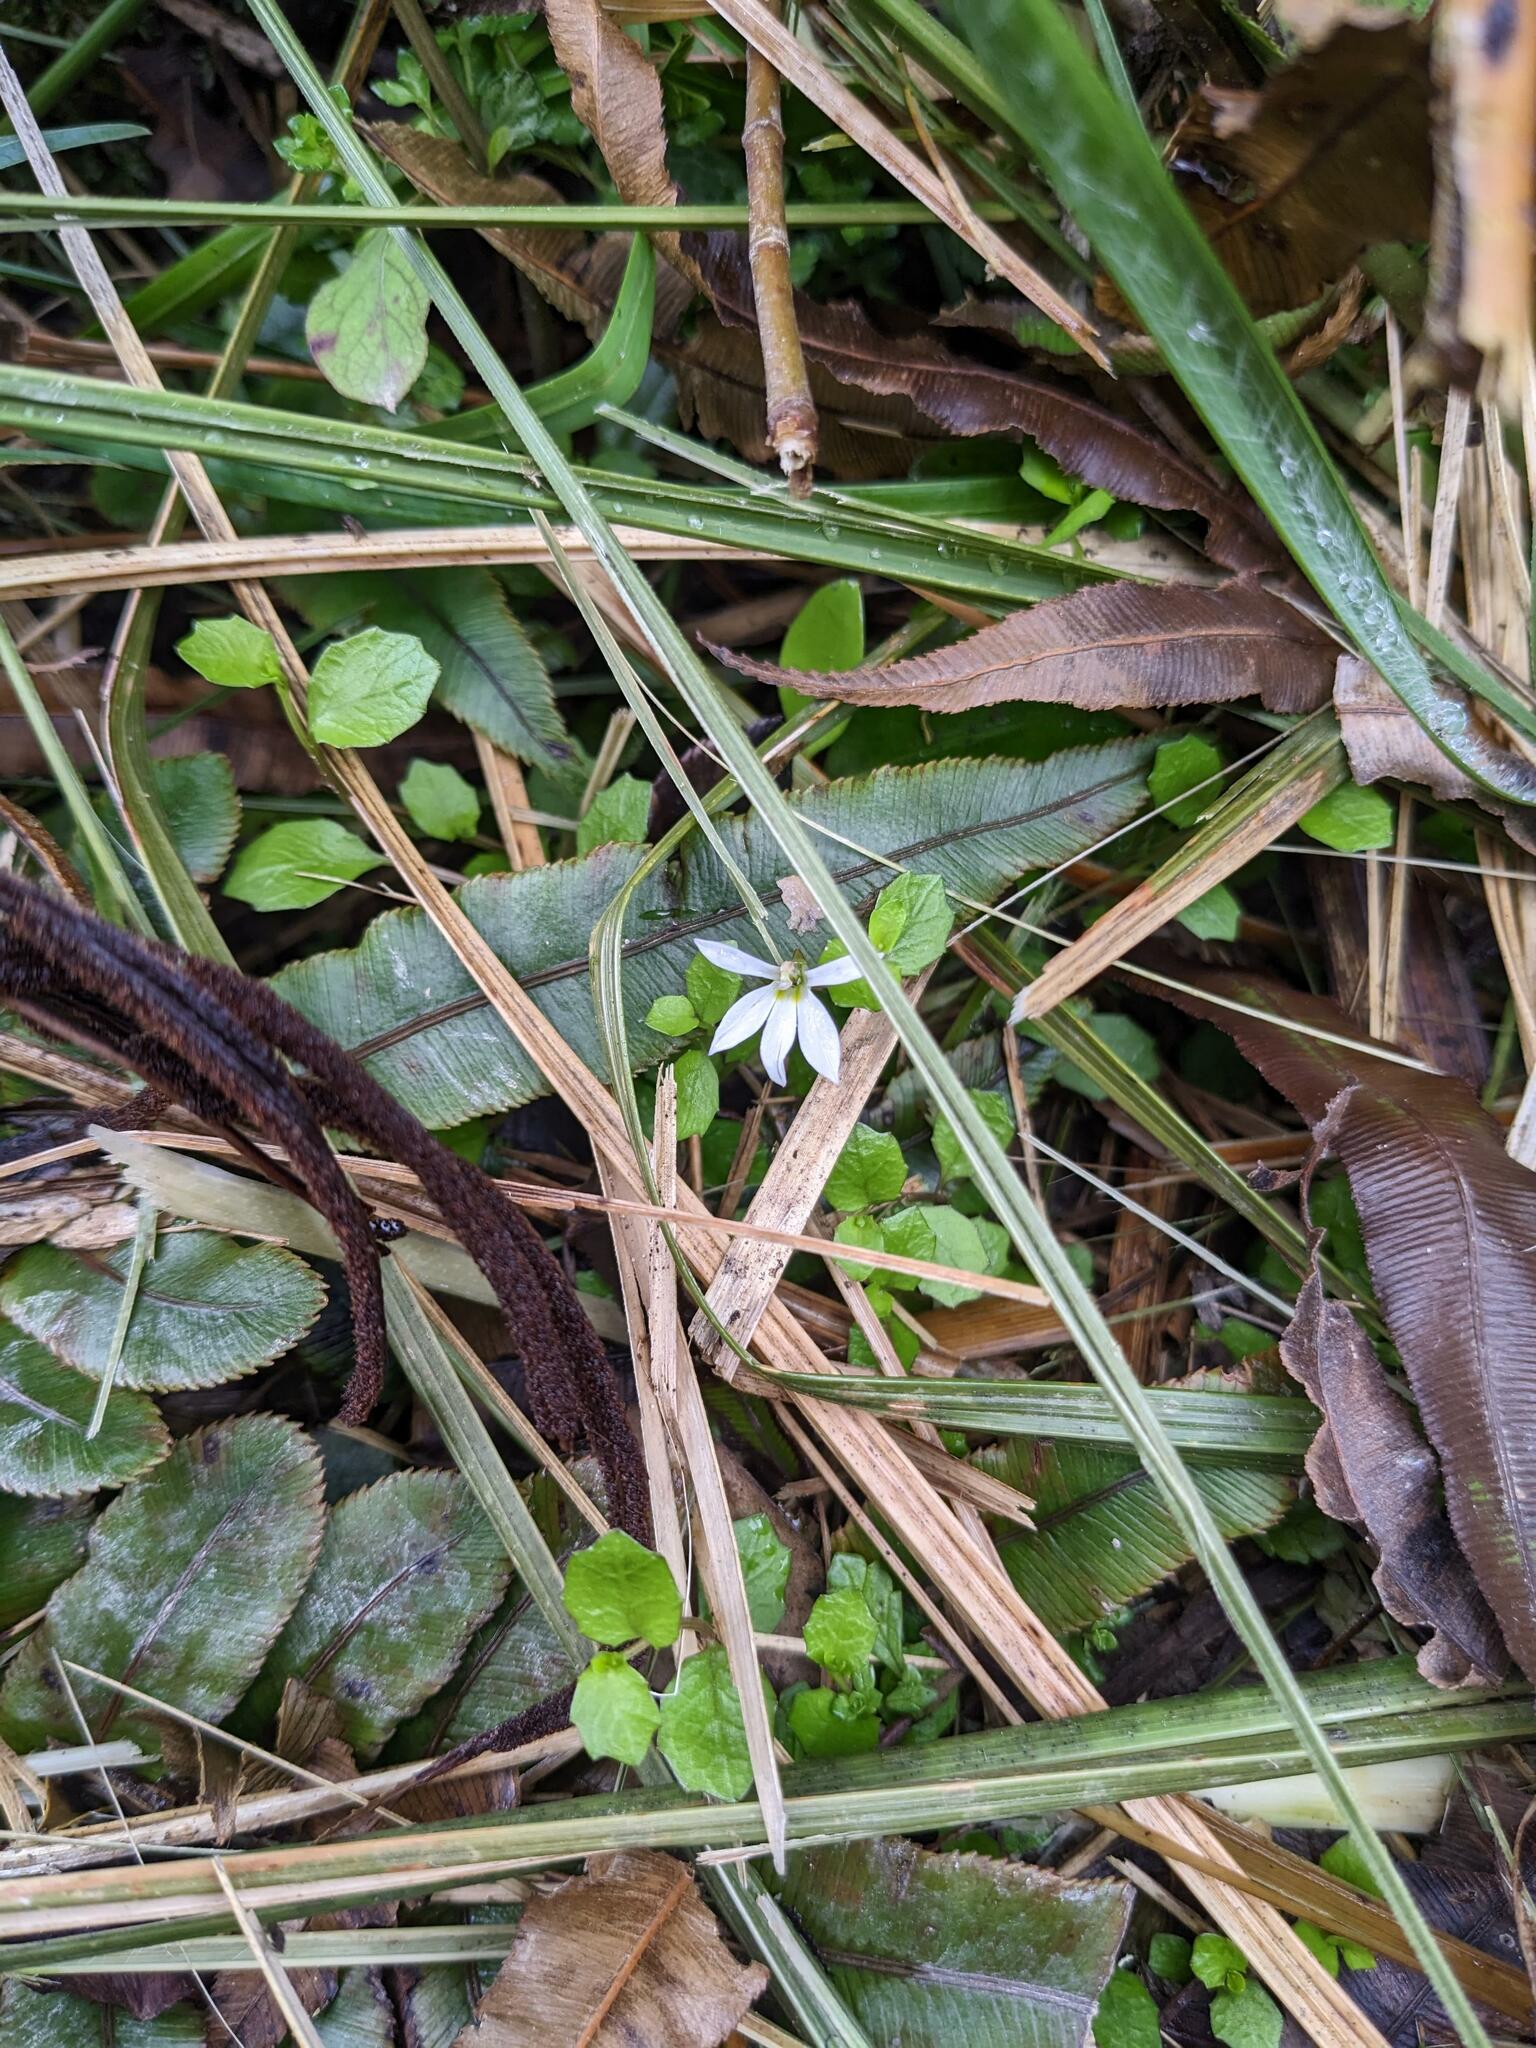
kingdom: Plantae
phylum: Tracheophyta
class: Magnoliopsida
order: Asterales
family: Campanulaceae
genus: Lobelia
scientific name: Lobelia angulata
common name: Lawn lobelia
